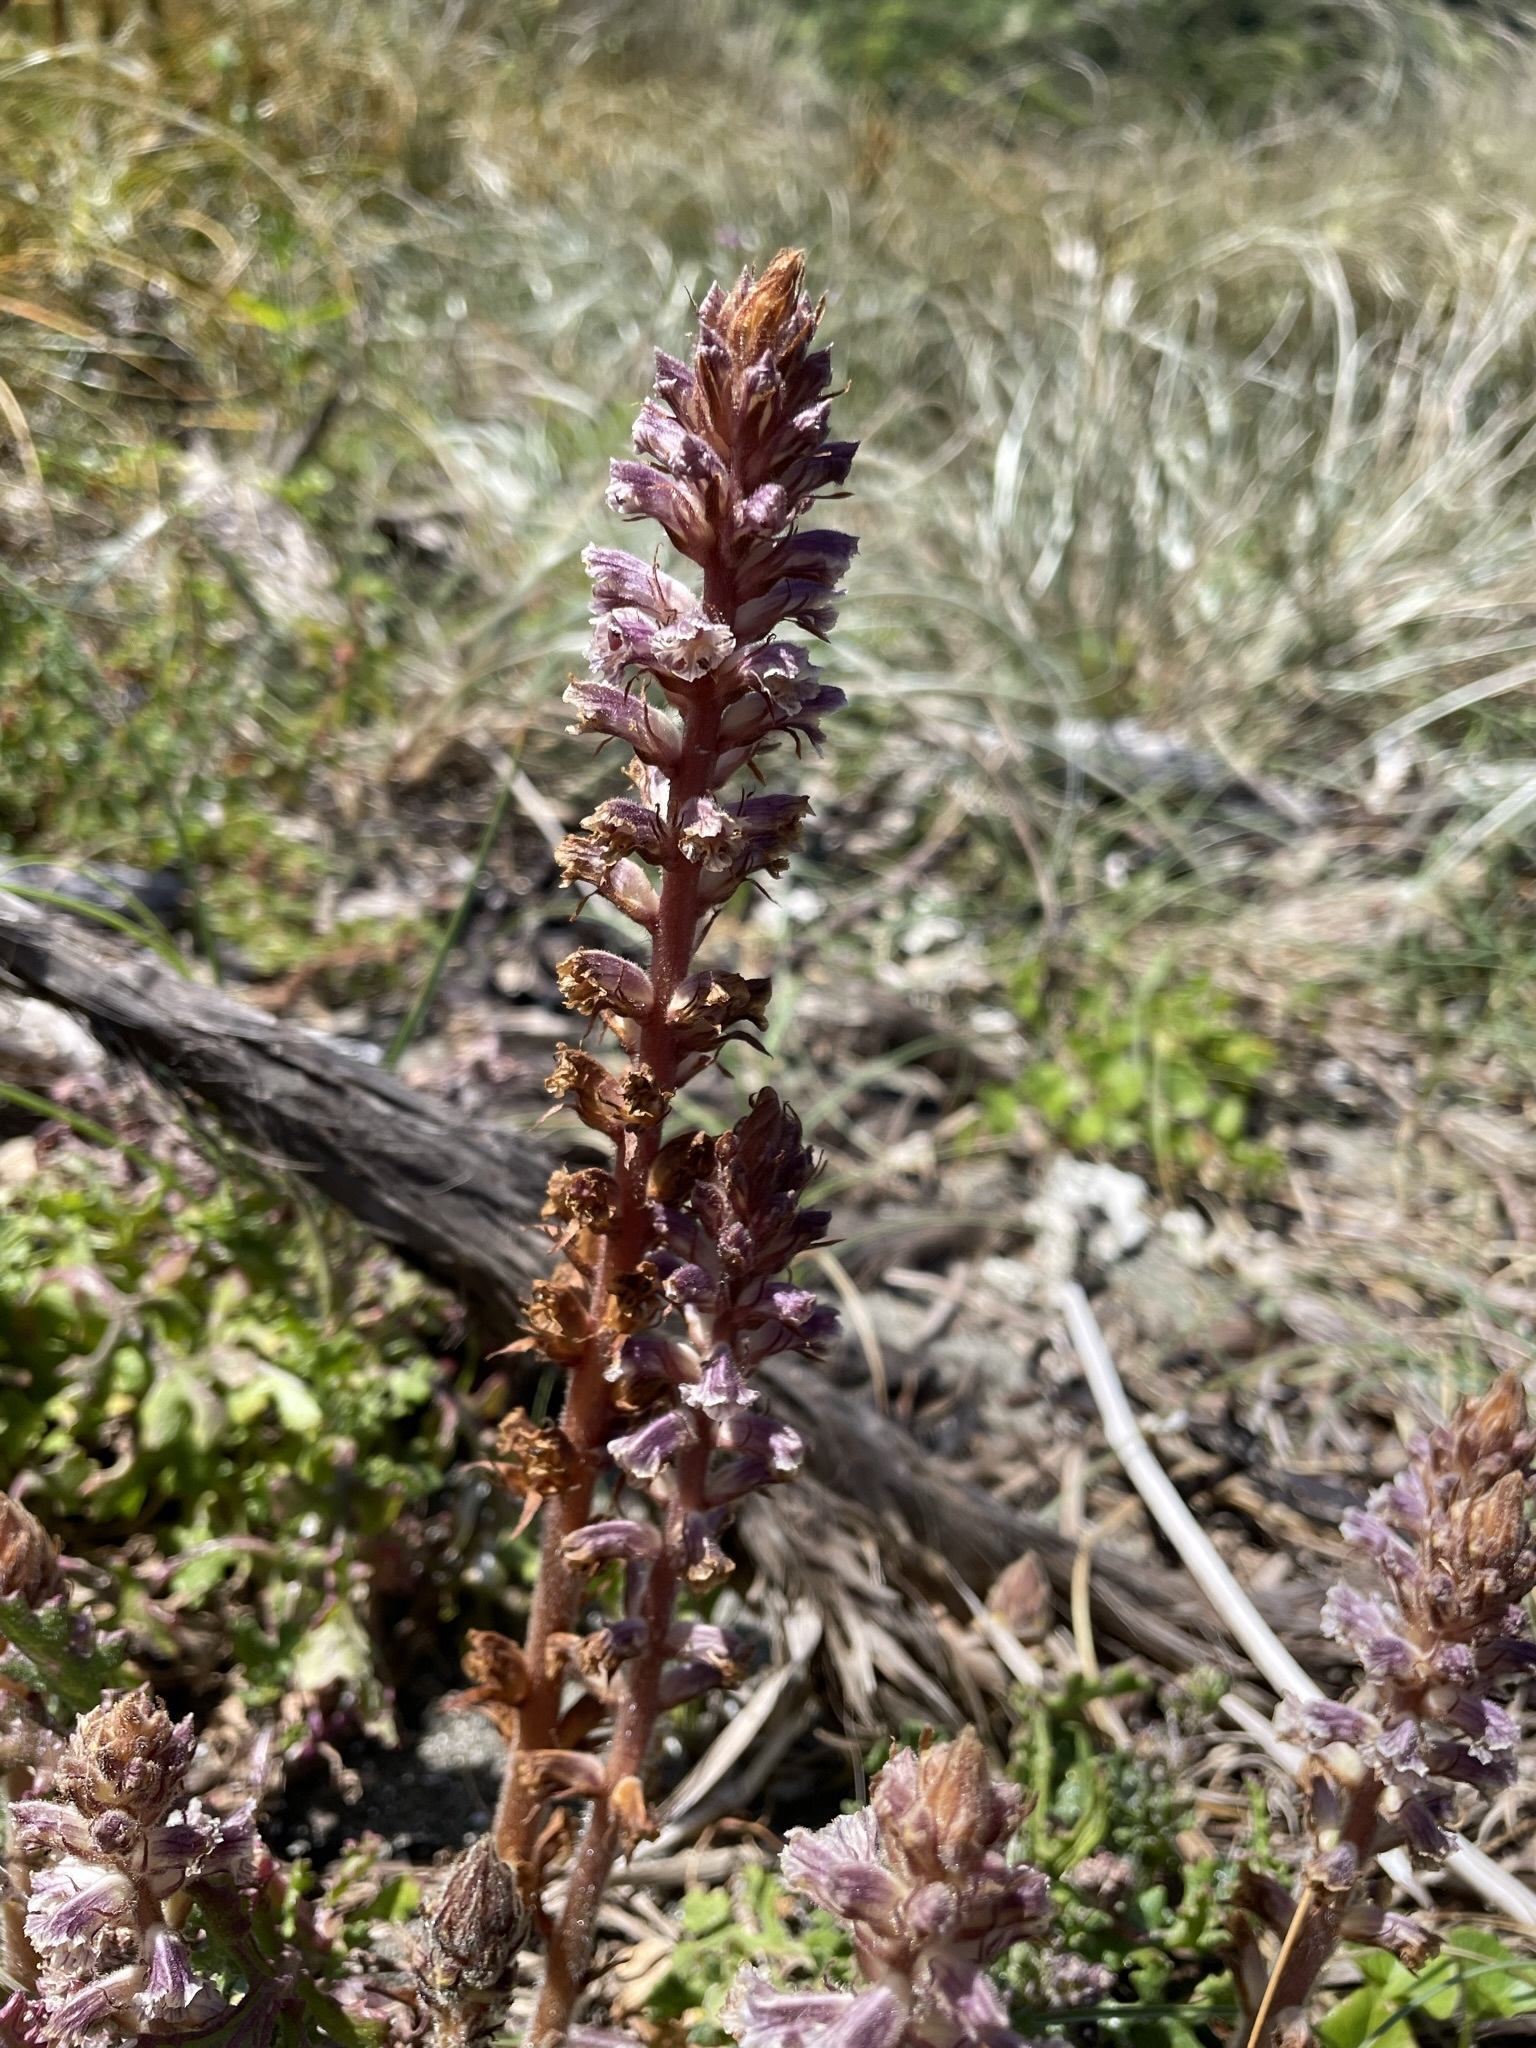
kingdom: Plantae
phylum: Tracheophyta
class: Magnoliopsida
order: Lamiales
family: Orobanchaceae
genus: Orobanche
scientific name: Orobanche minor
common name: Common broomrape
